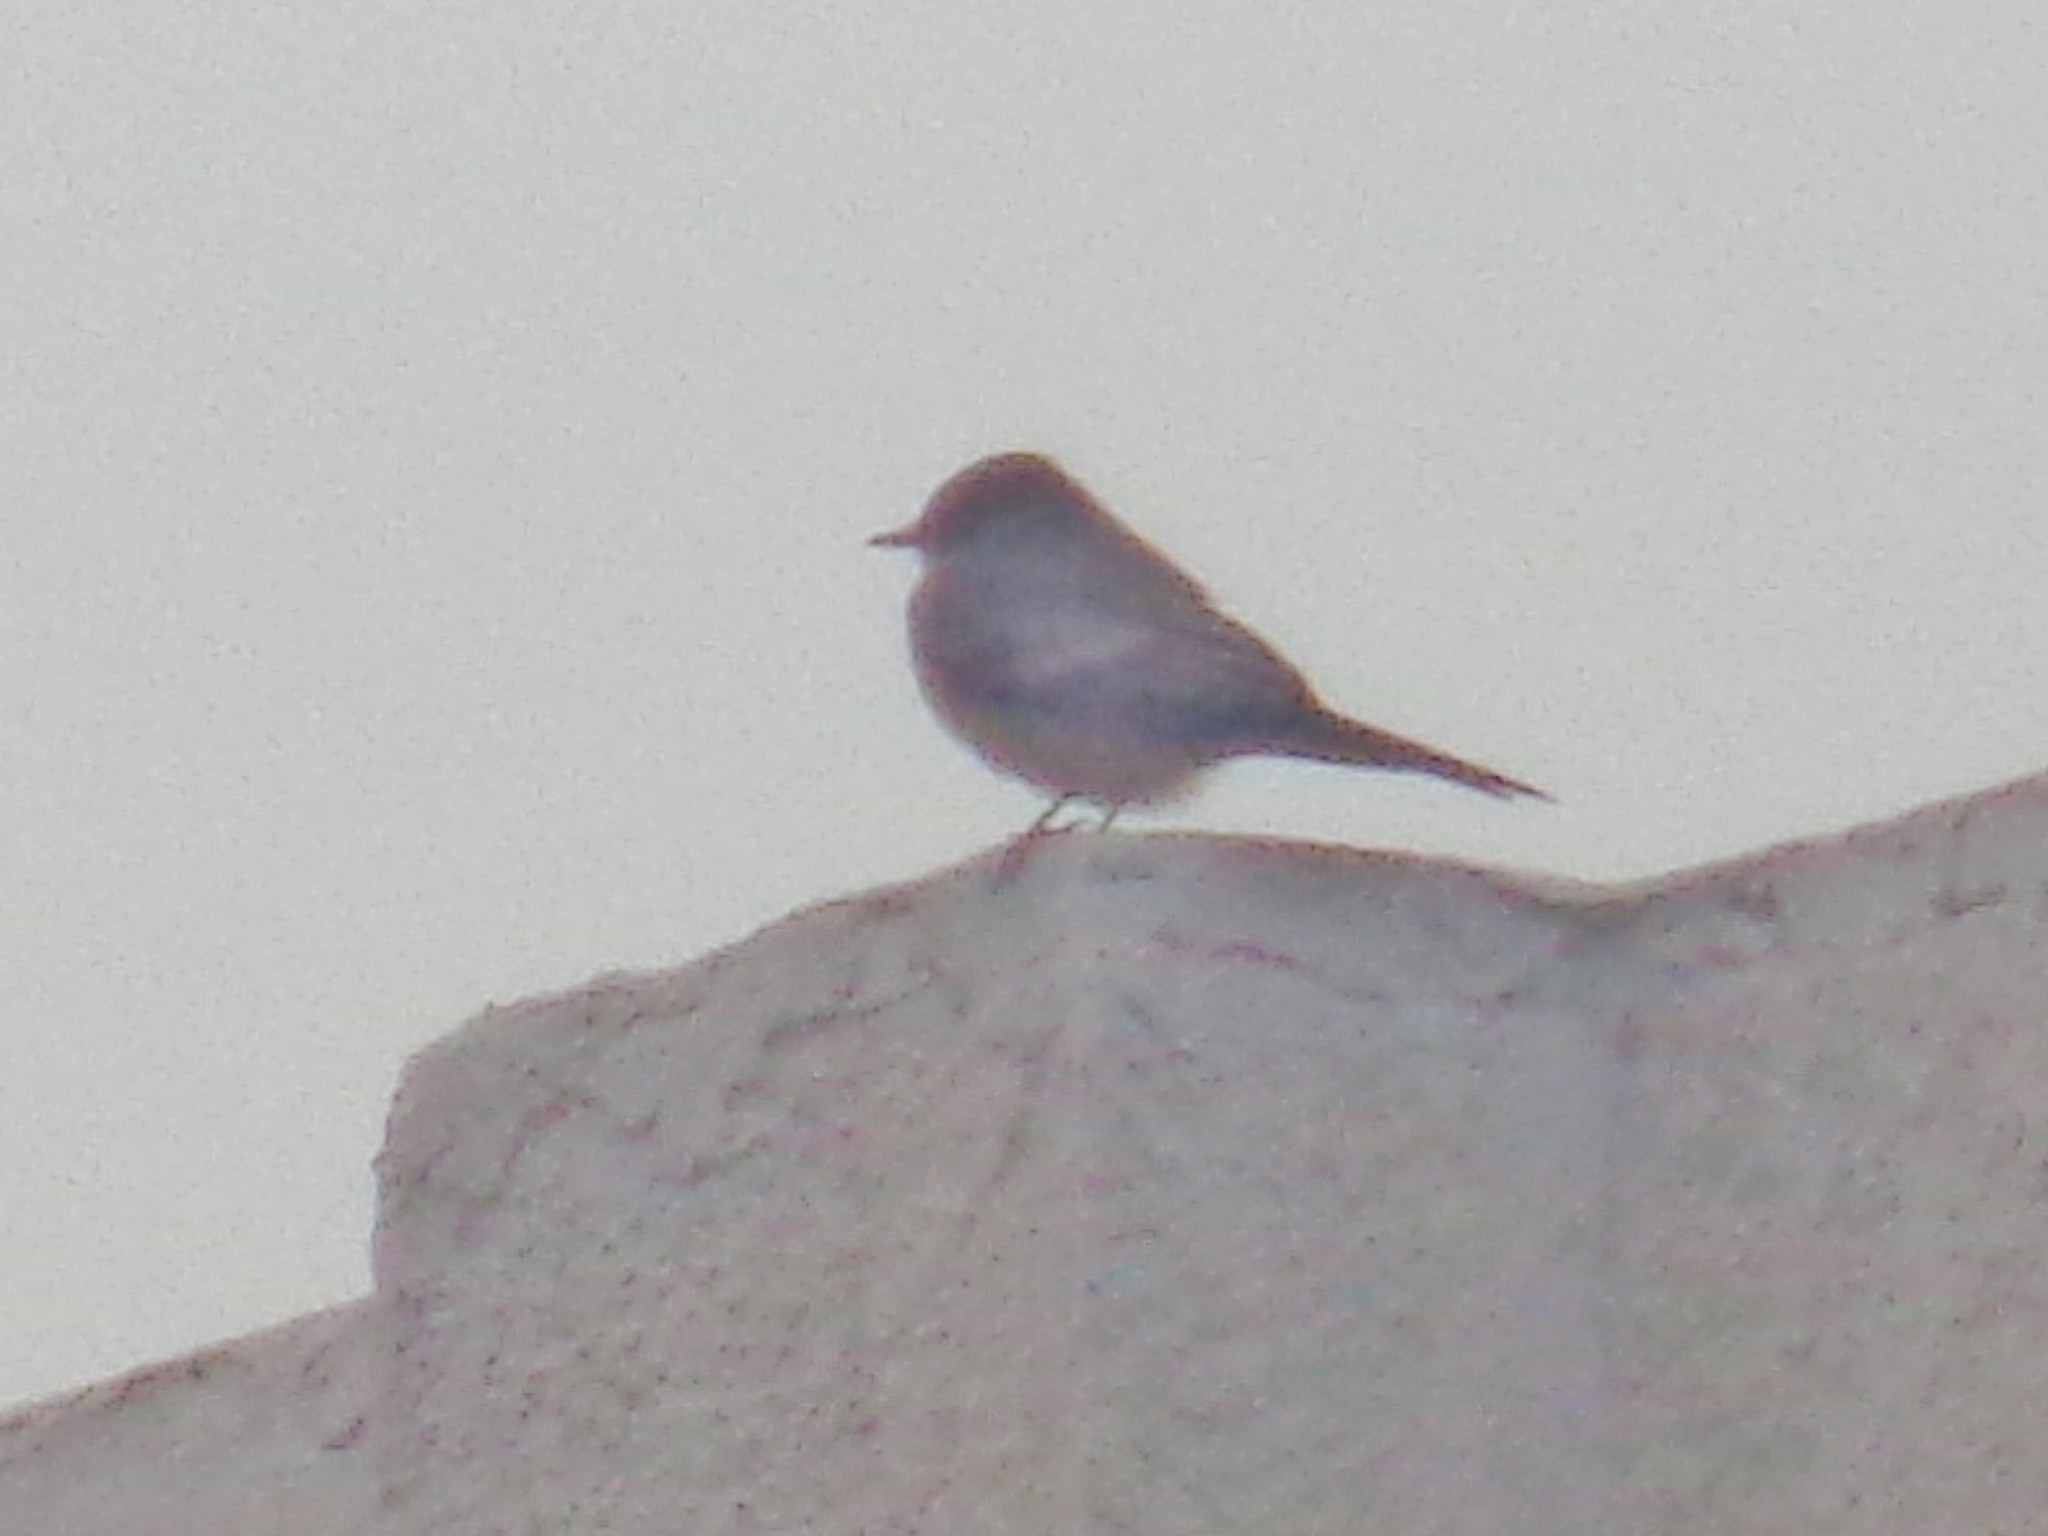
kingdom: Animalia
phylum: Chordata
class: Aves
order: Passeriformes
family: Tyrannidae
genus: Sayornis
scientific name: Sayornis saya
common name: Say's phoebe
